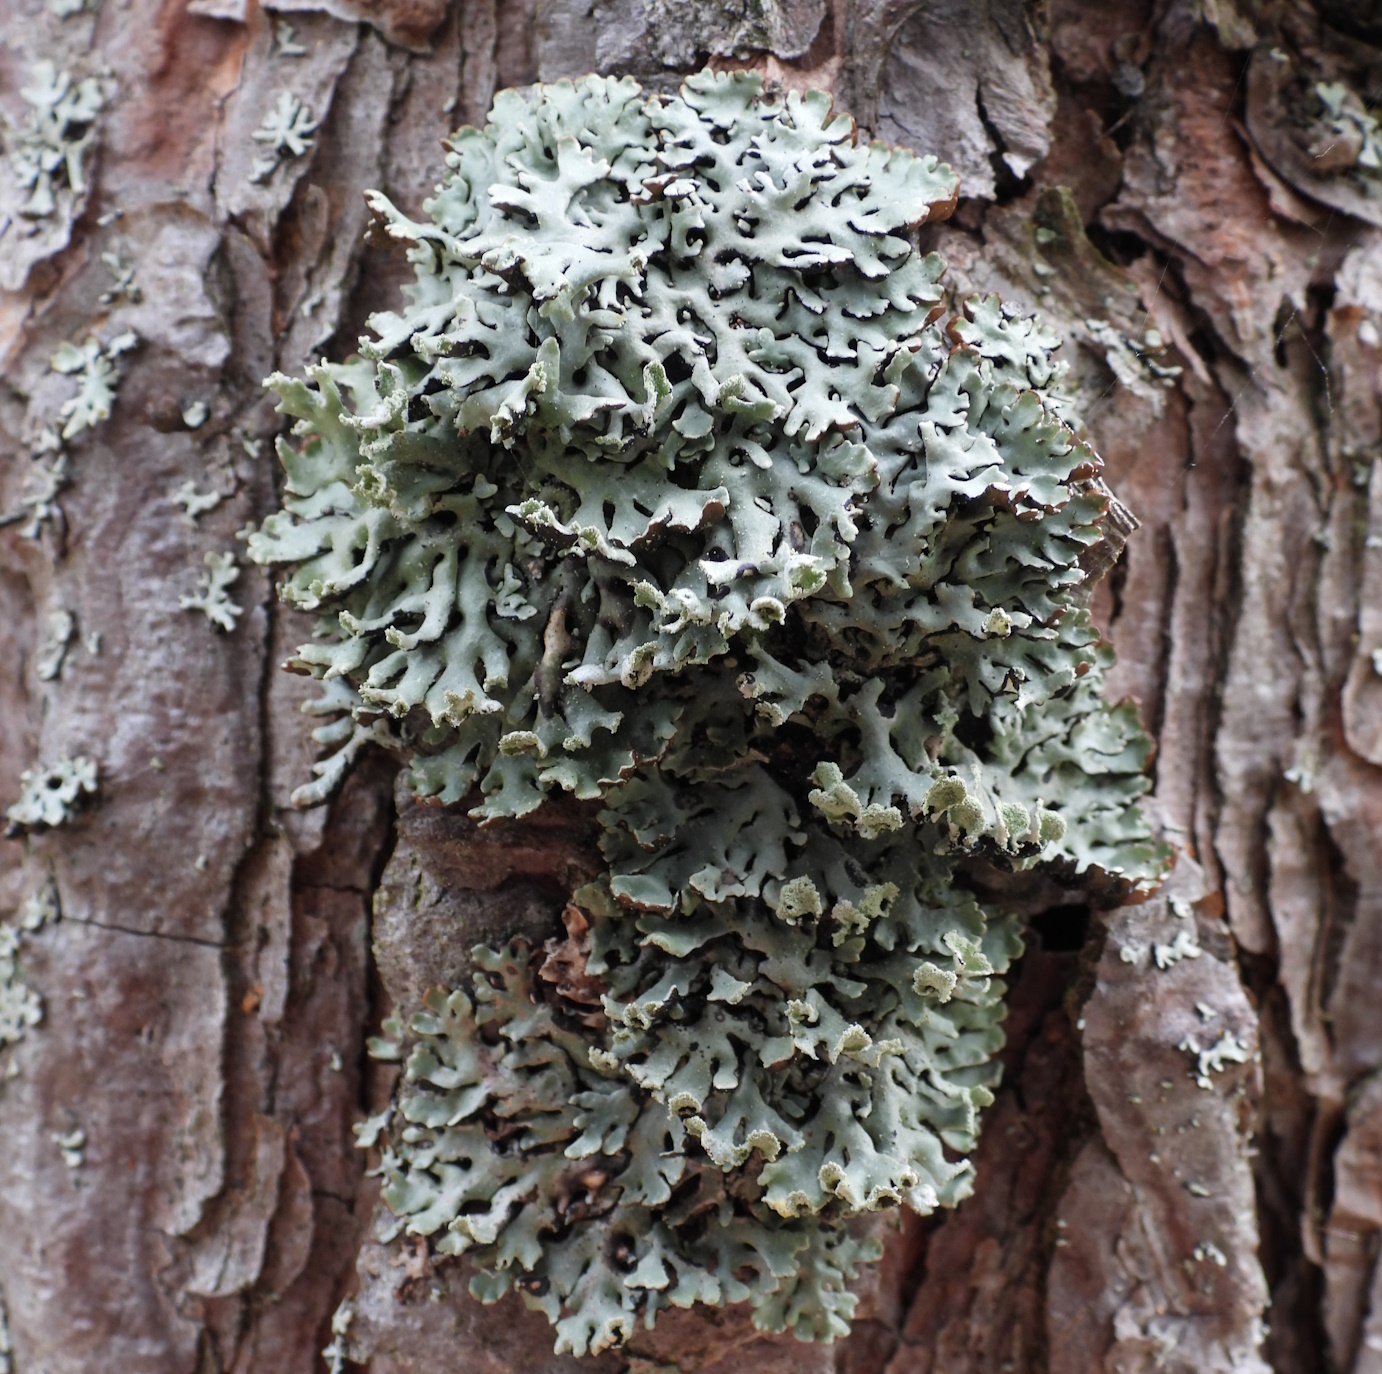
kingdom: Fungi
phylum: Ascomycota
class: Lecanoromycetes
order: Lecanorales
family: Parmeliaceae
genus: Hypogymnia
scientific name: Hypogymnia physodes
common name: Dark crottle
